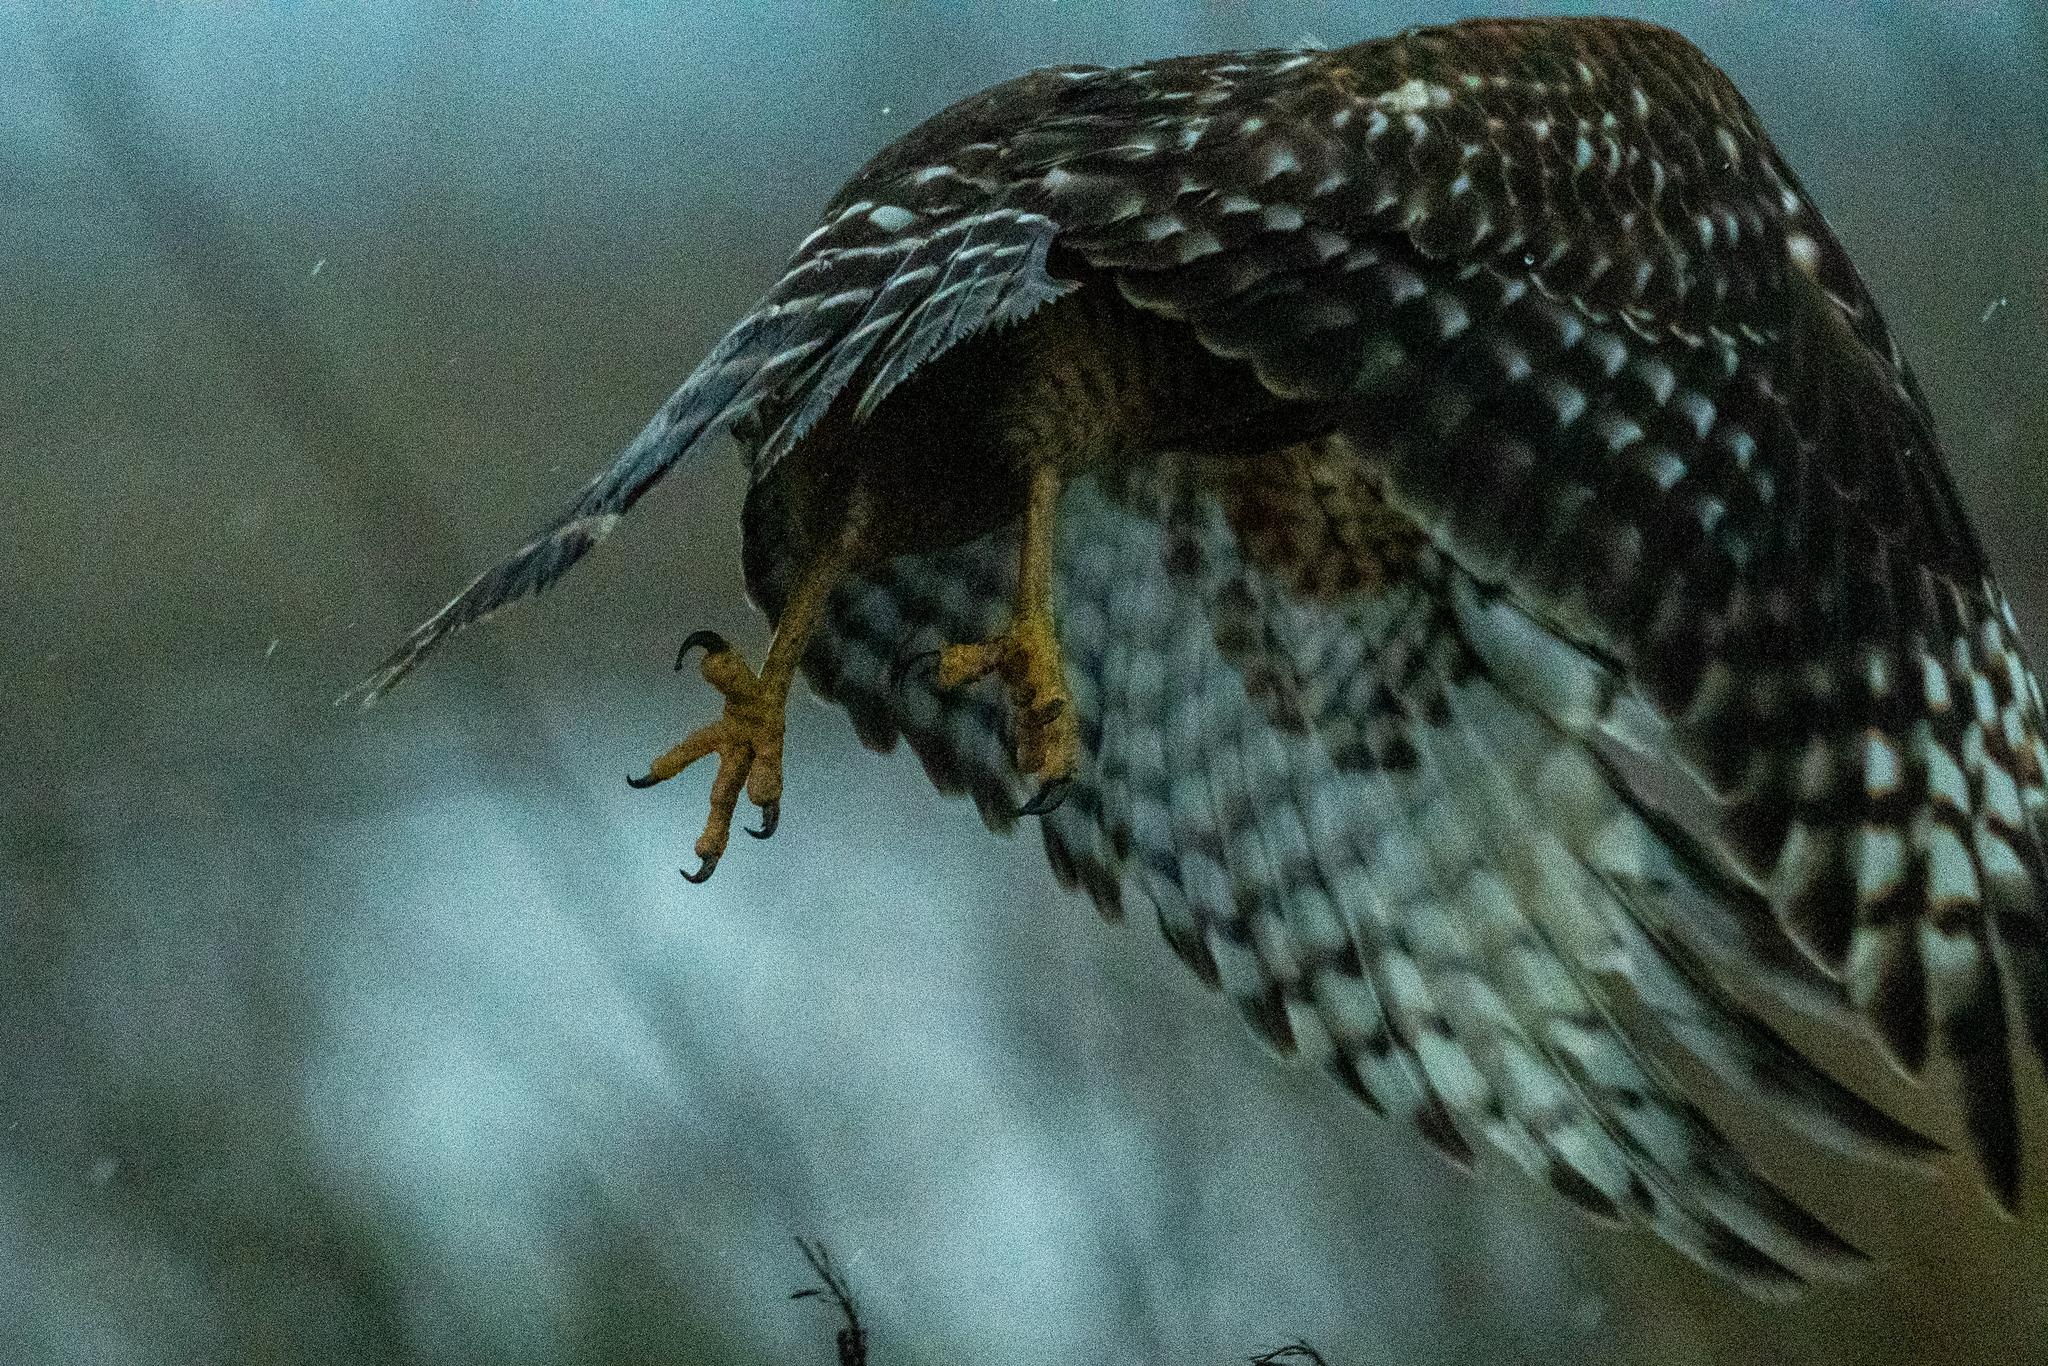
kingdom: Animalia
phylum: Chordata
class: Aves
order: Accipitriformes
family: Accipitridae
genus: Buteo
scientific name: Buteo lineatus
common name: Red-shouldered hawk
